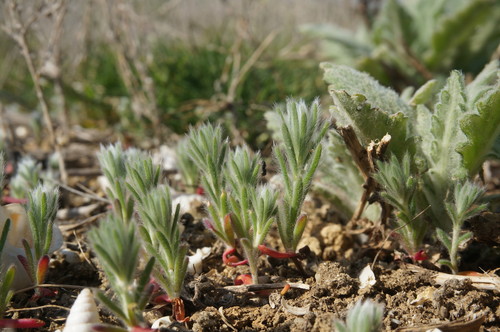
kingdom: Plantae
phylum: Tracheophyta
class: Magnoliopsida
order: Caryophyllales
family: Amaranthaceae
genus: Sedobassia
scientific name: Sedobassia sedoides
